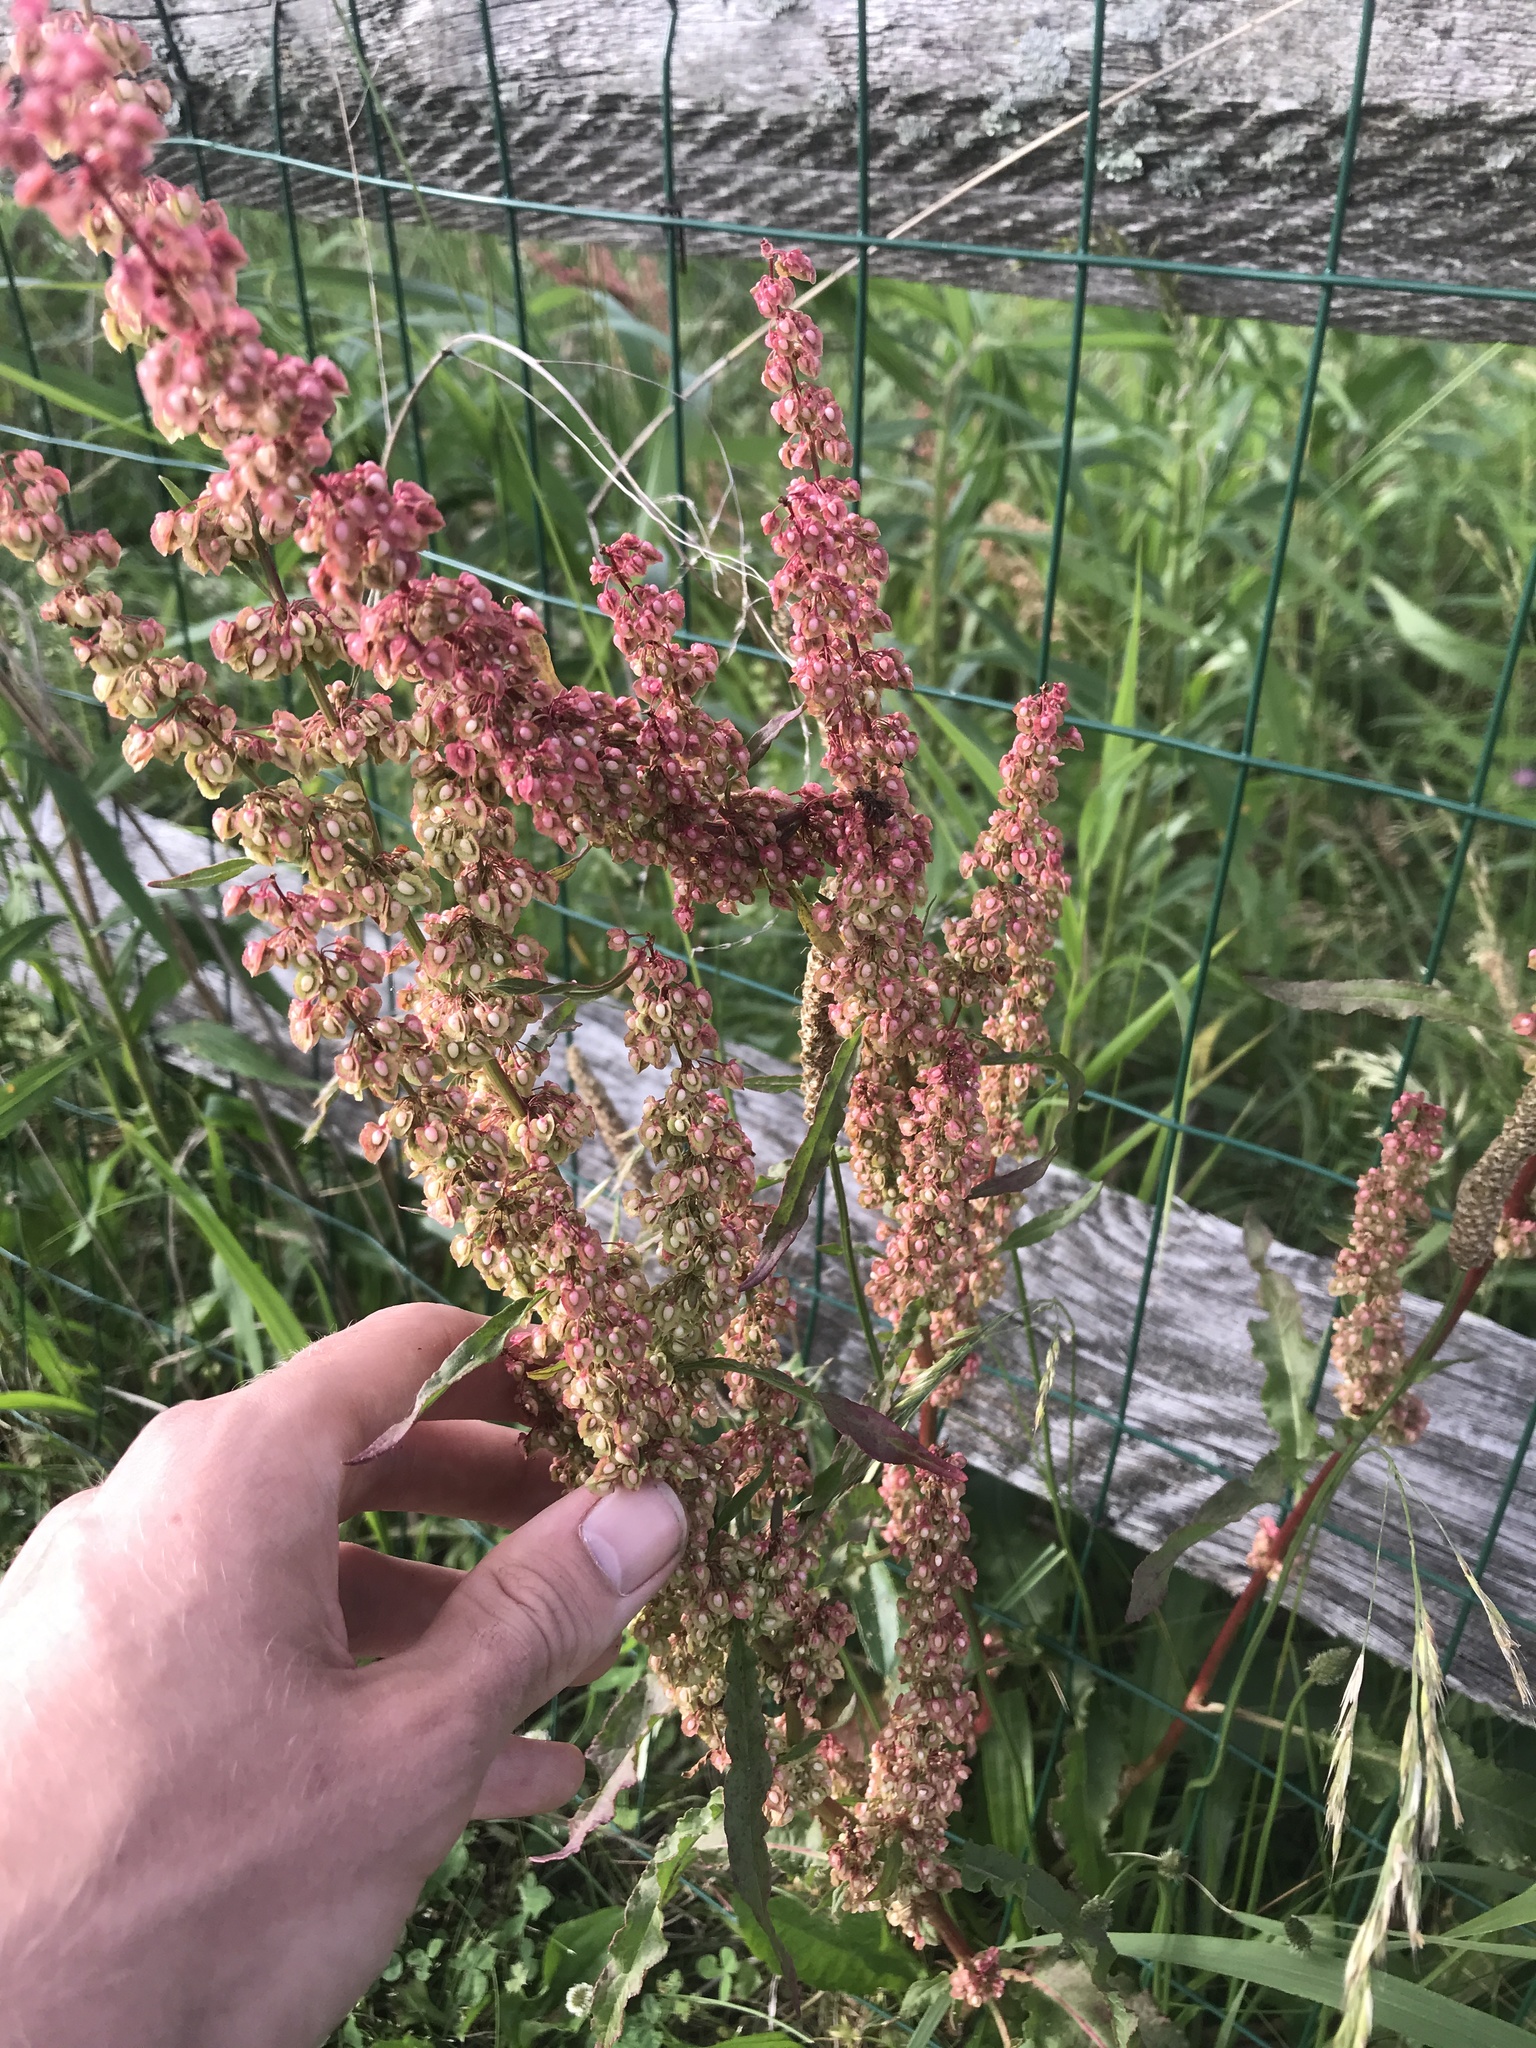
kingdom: Plantae
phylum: Tracheophyta
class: Magnoliopsida
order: Caryophyllales
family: Polygonaceae
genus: Rumex
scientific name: Rumex crispus
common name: Curled dock
